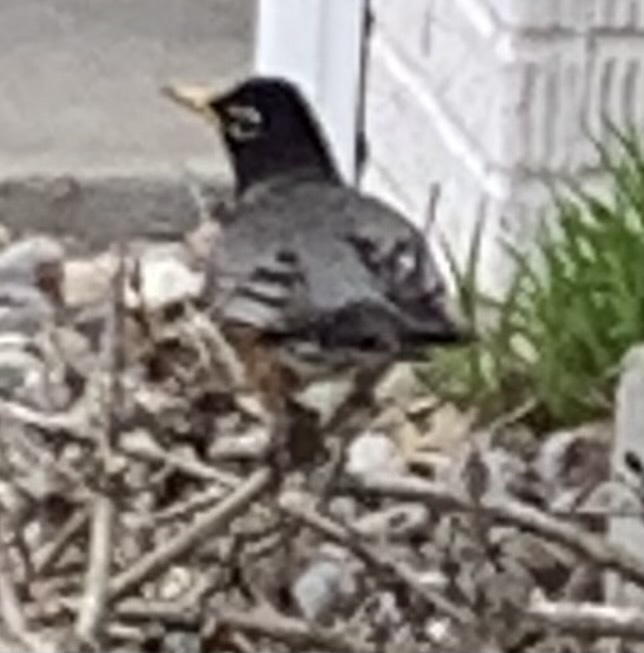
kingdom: Animalia
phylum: Chordata
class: Aves
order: Passeriformes
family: Turdidae
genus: Turdus
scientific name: Turdus migratorius
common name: American robin
